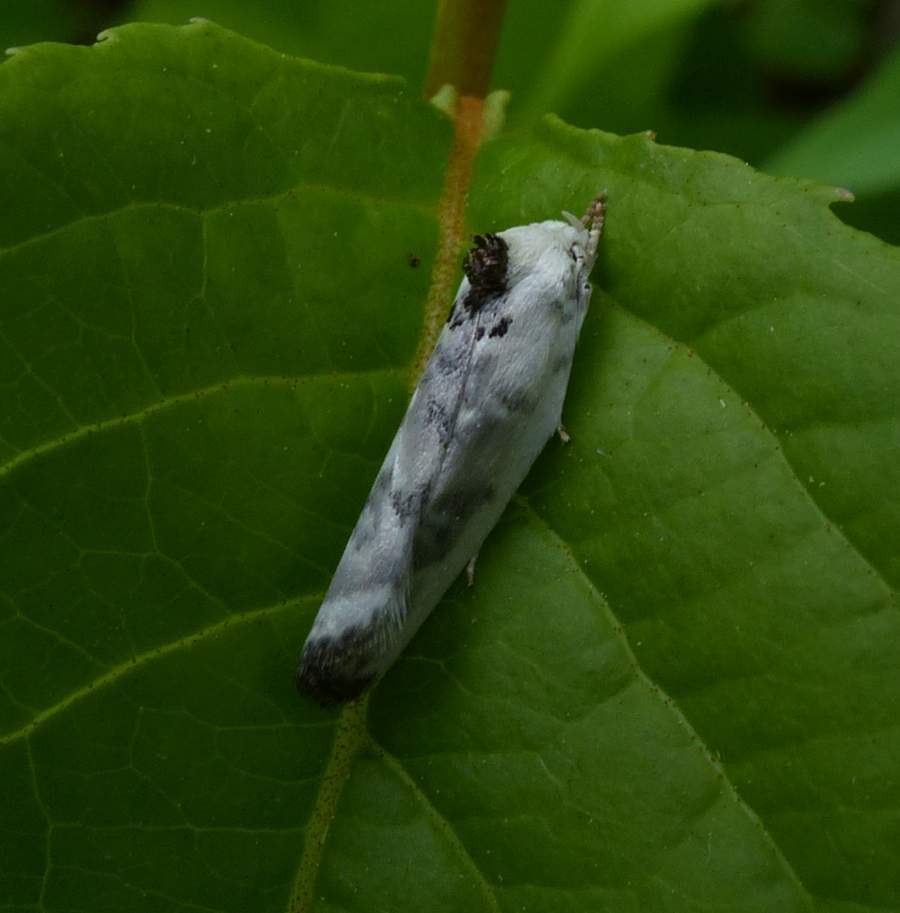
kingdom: Animalia
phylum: Arthropoda
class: Insecta
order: Lepidoptera
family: Depressariidae
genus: Antaeotricha
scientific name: Antaeotricha schlaegeri
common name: Schlaeger's fruitworm moth
